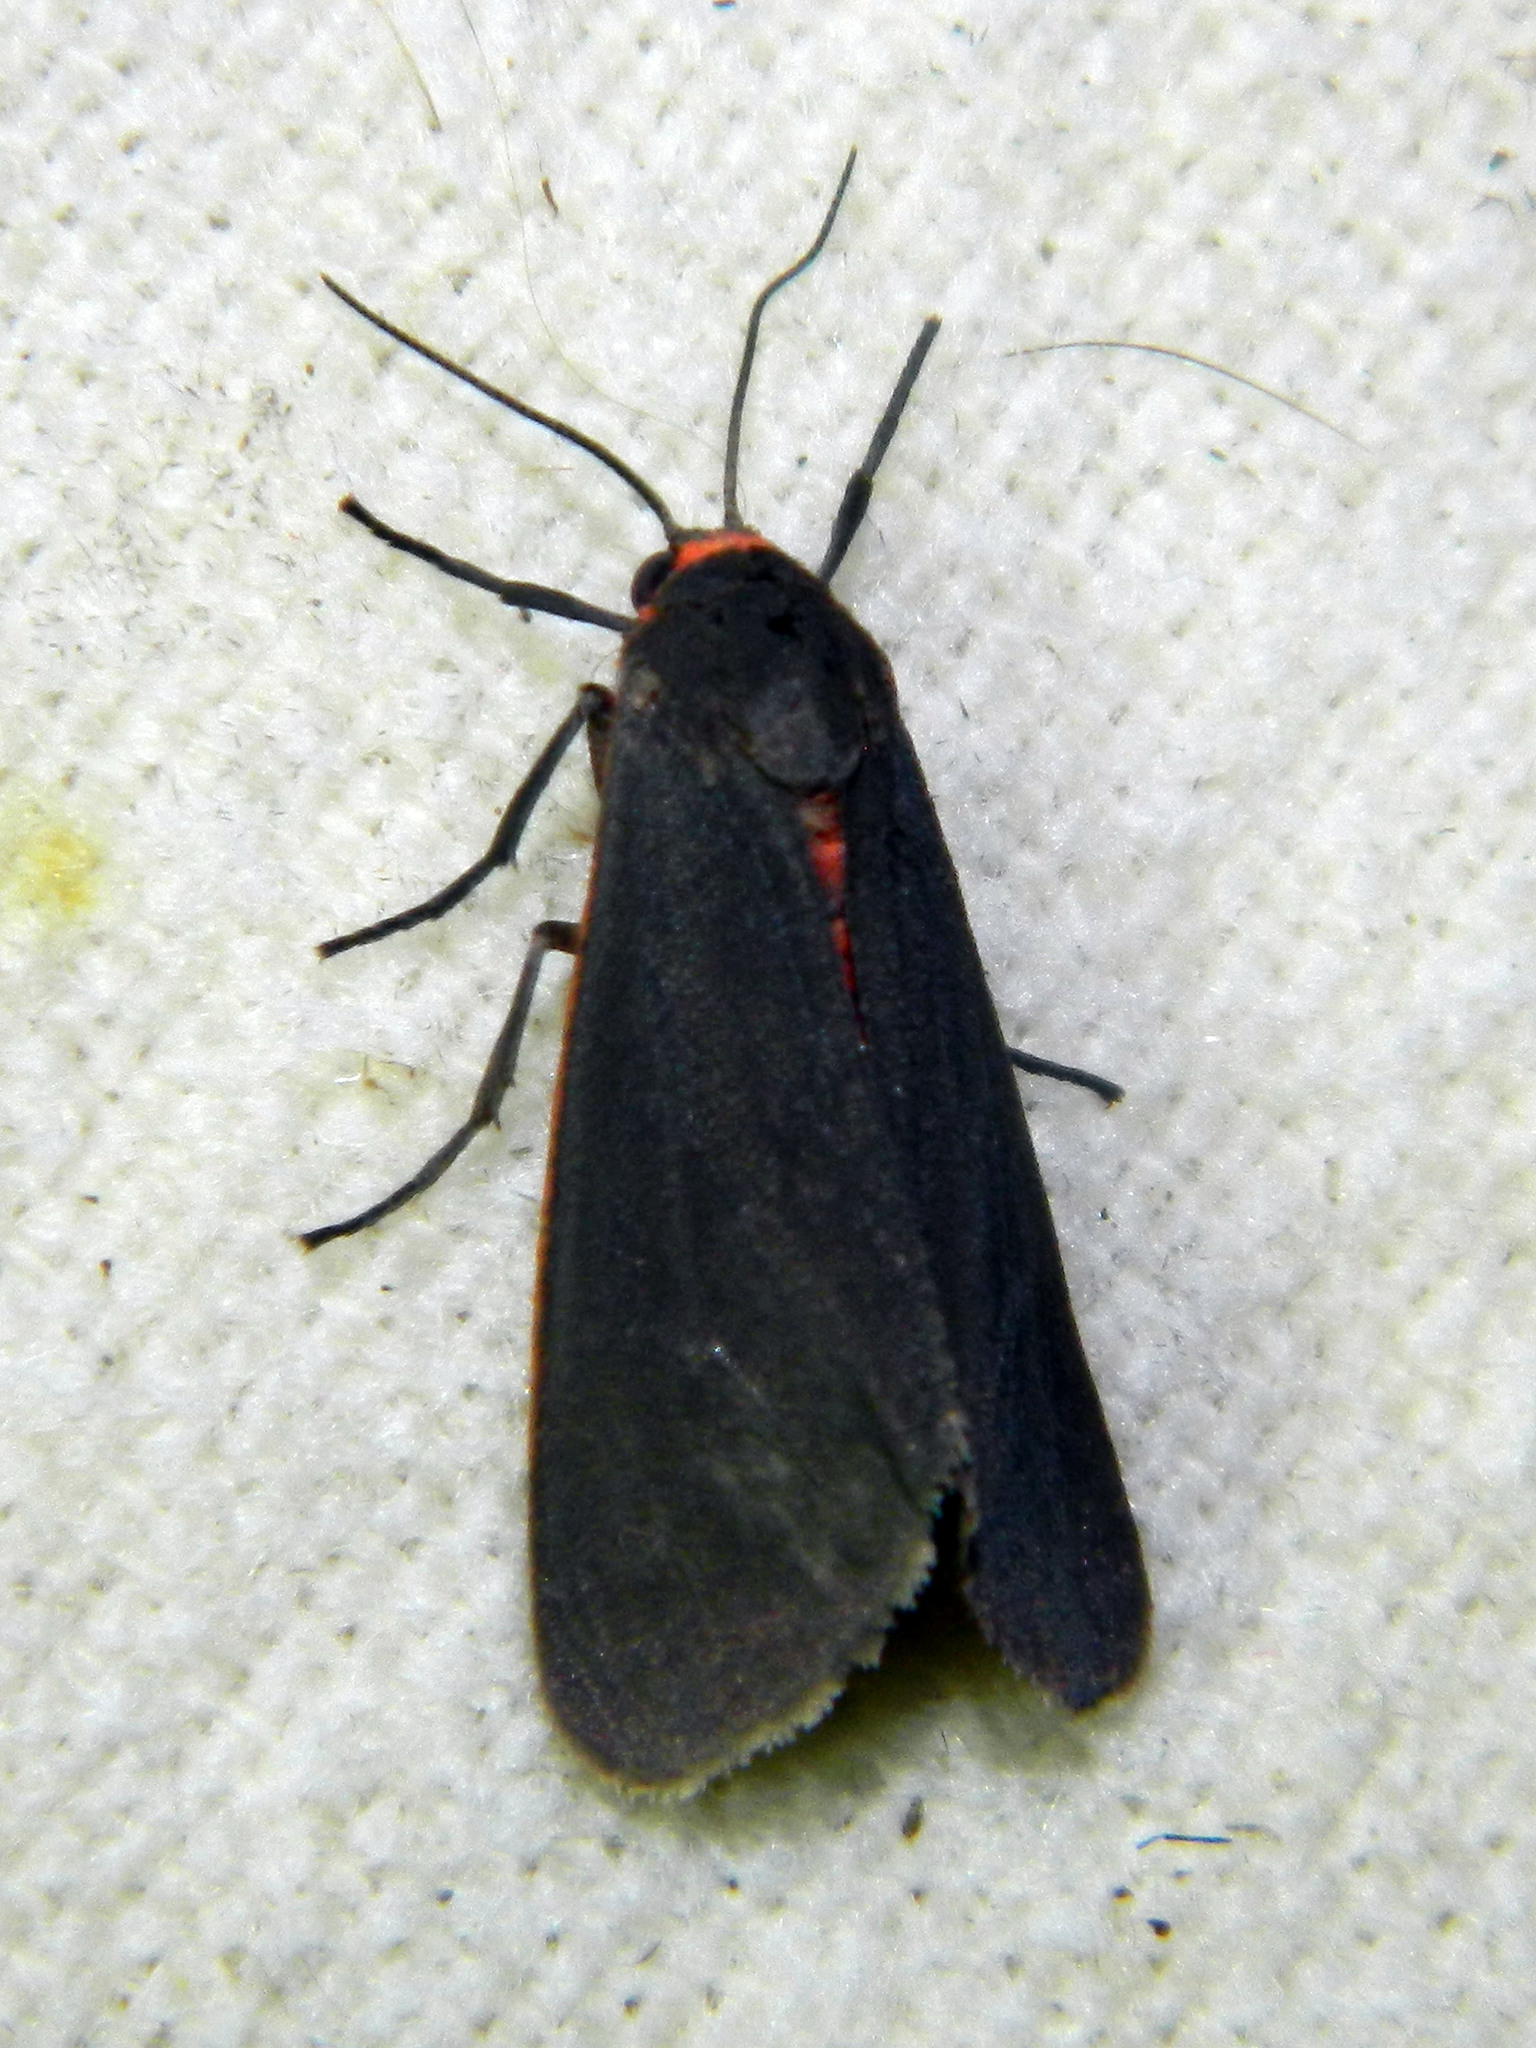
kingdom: Animalia
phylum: Arthropoda
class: Insecta
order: Lepidoptera
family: Erebidae
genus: Virbia
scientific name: Virbia laeta
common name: Joyful holomelina moth
